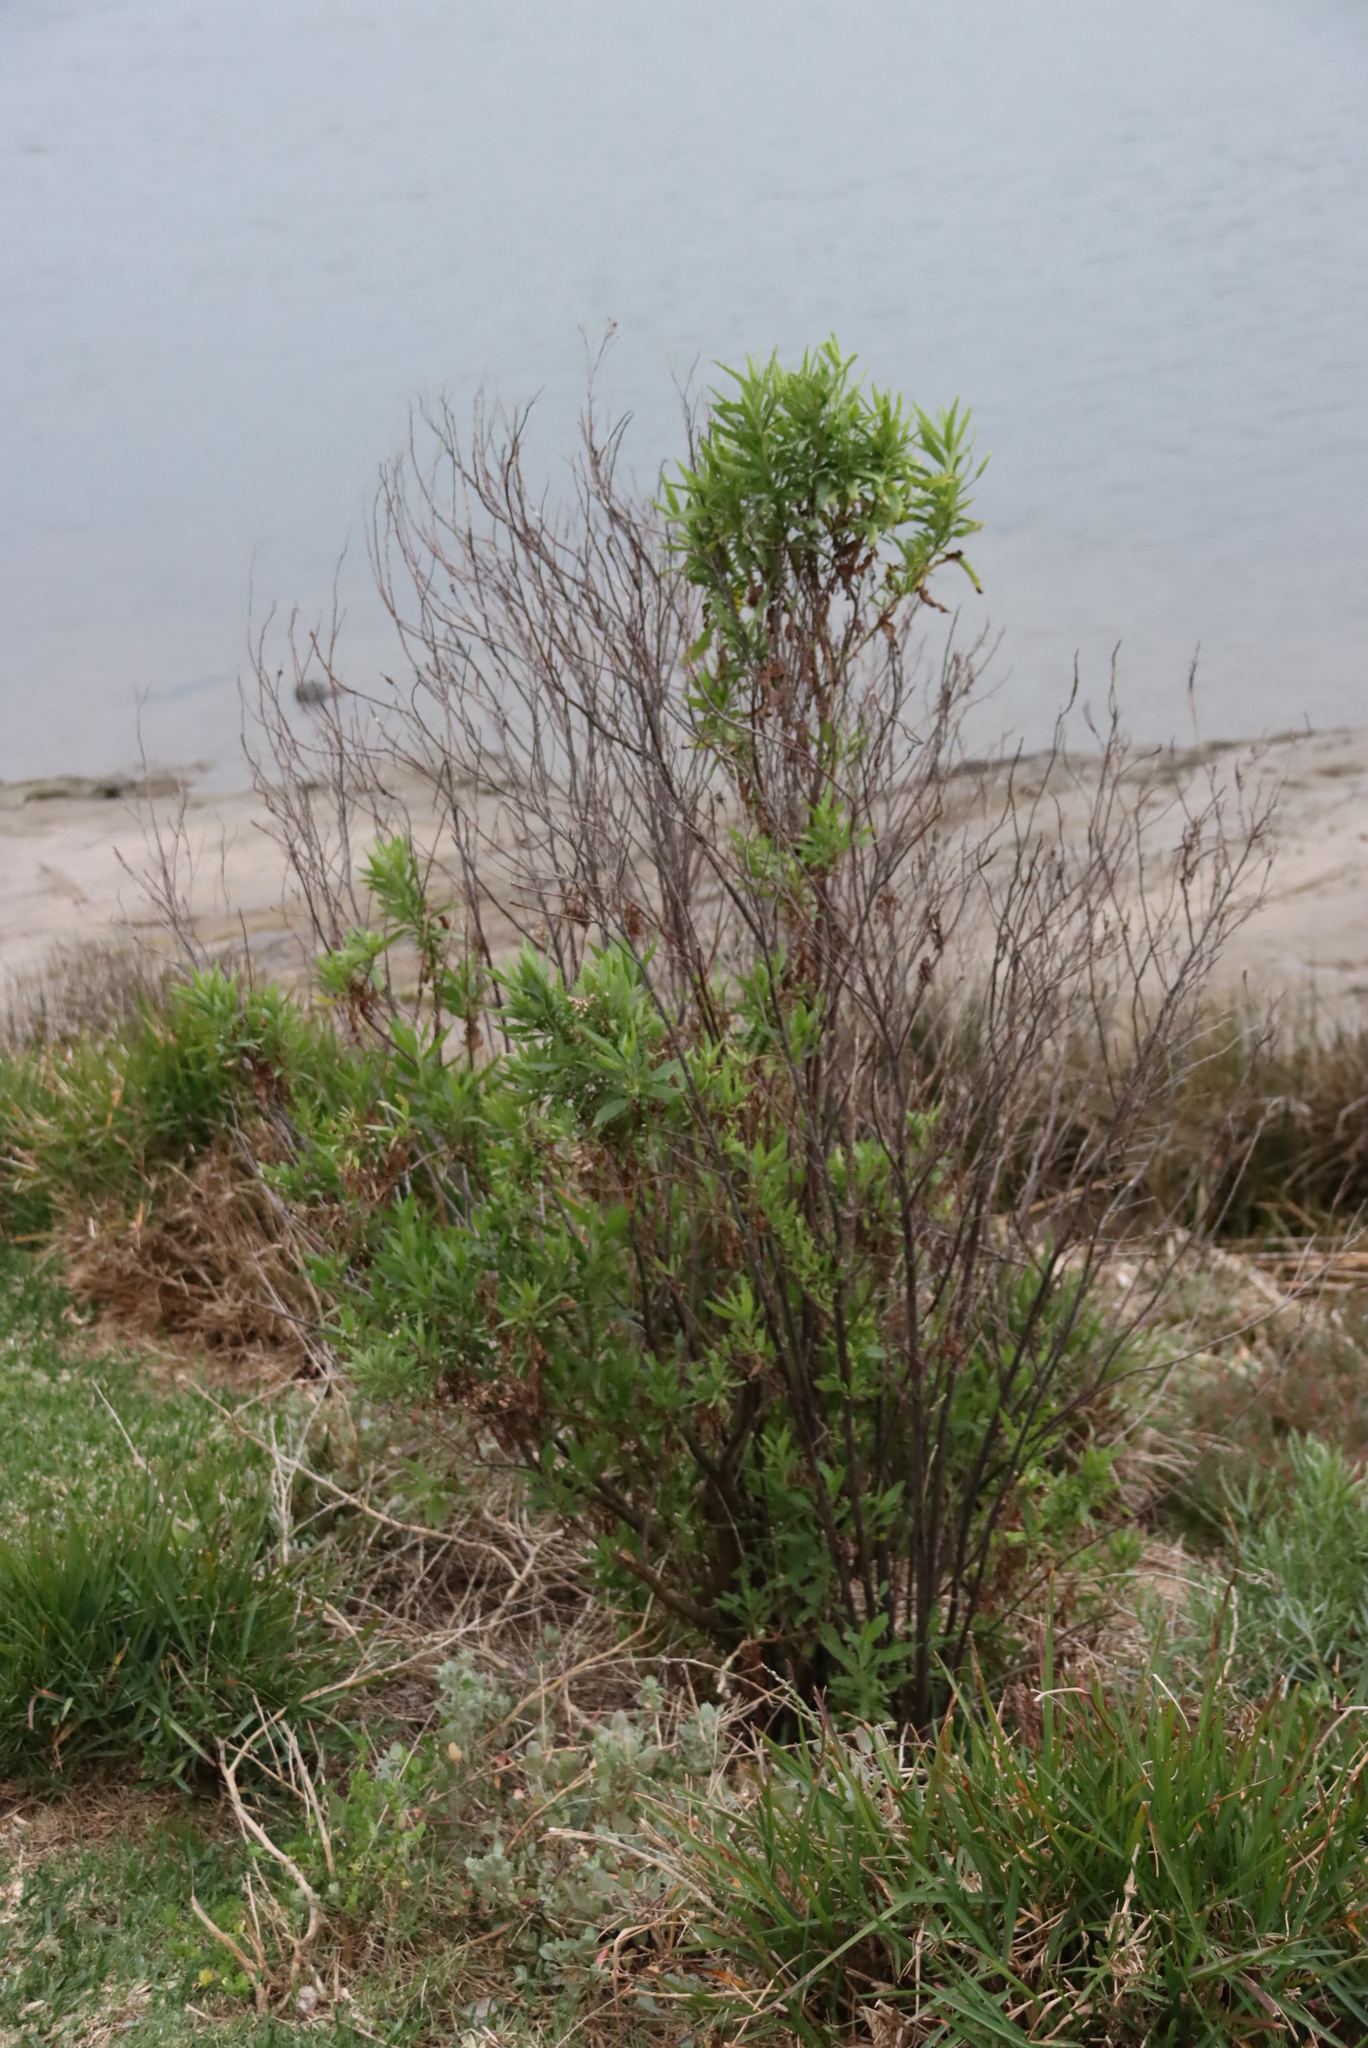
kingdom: Plantae
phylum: Tracheophyta
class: Magnoliopsida
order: Asterales
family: Asteraceae
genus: Nidorella
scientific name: Nidorella ivifolia
